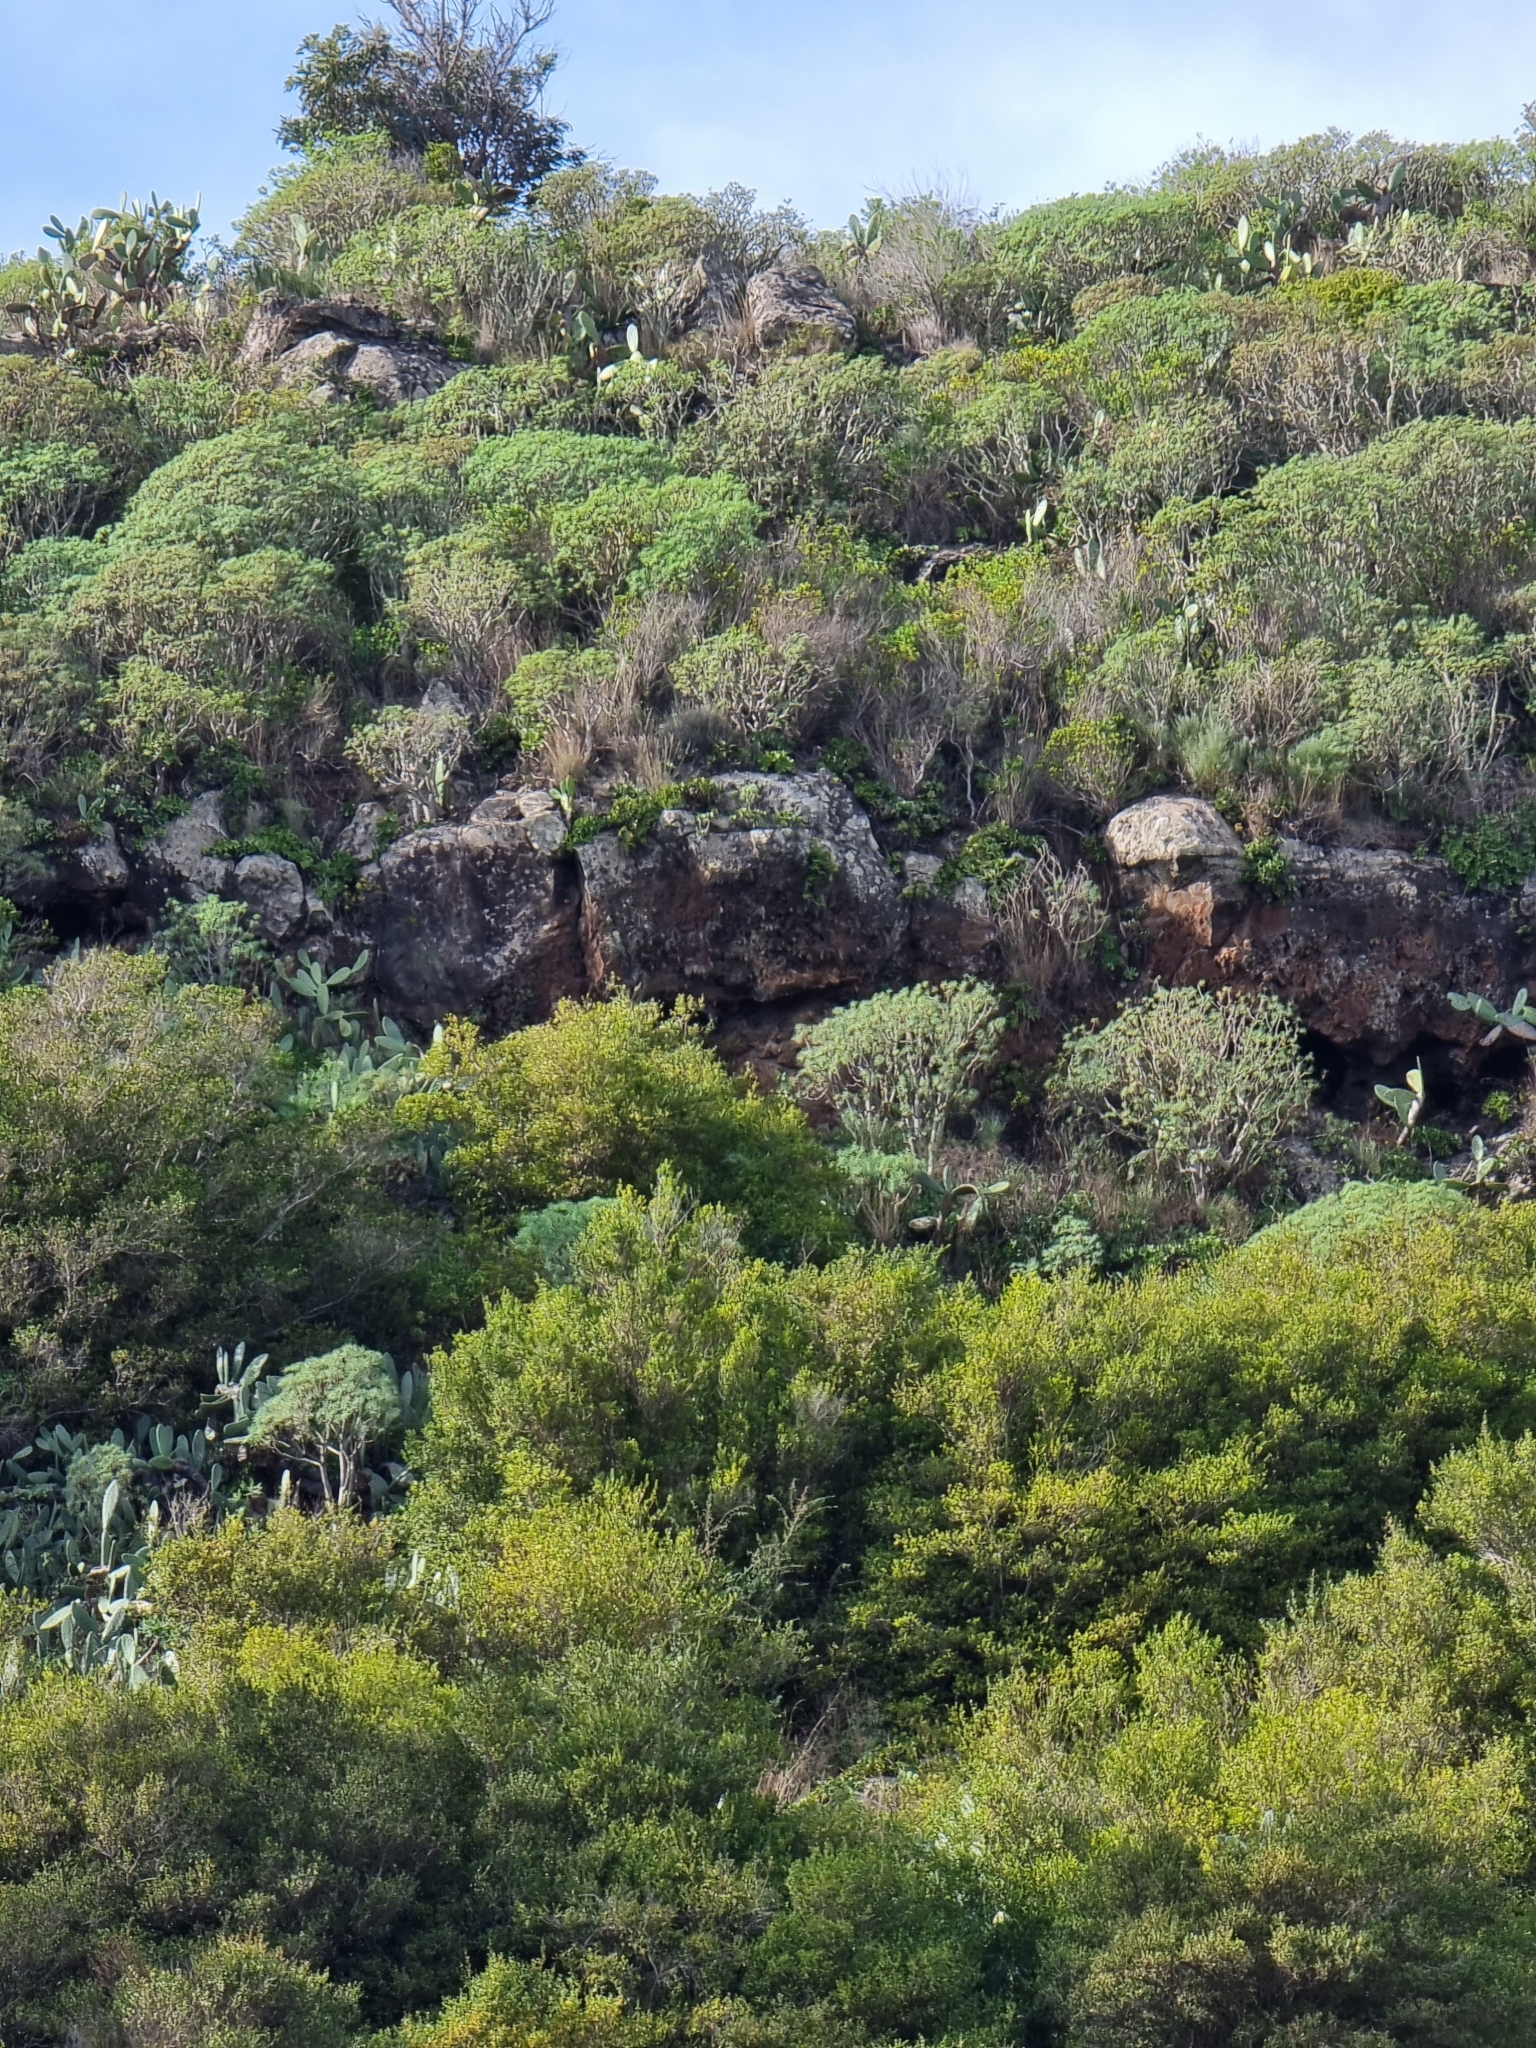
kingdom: Plantae
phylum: Tracheophyta
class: Magnoliopsida
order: Malpighiales
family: Euphorbiaceae
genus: Euphorbia
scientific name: Euphorbia piscatoria
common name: Fish-stunning spurge
